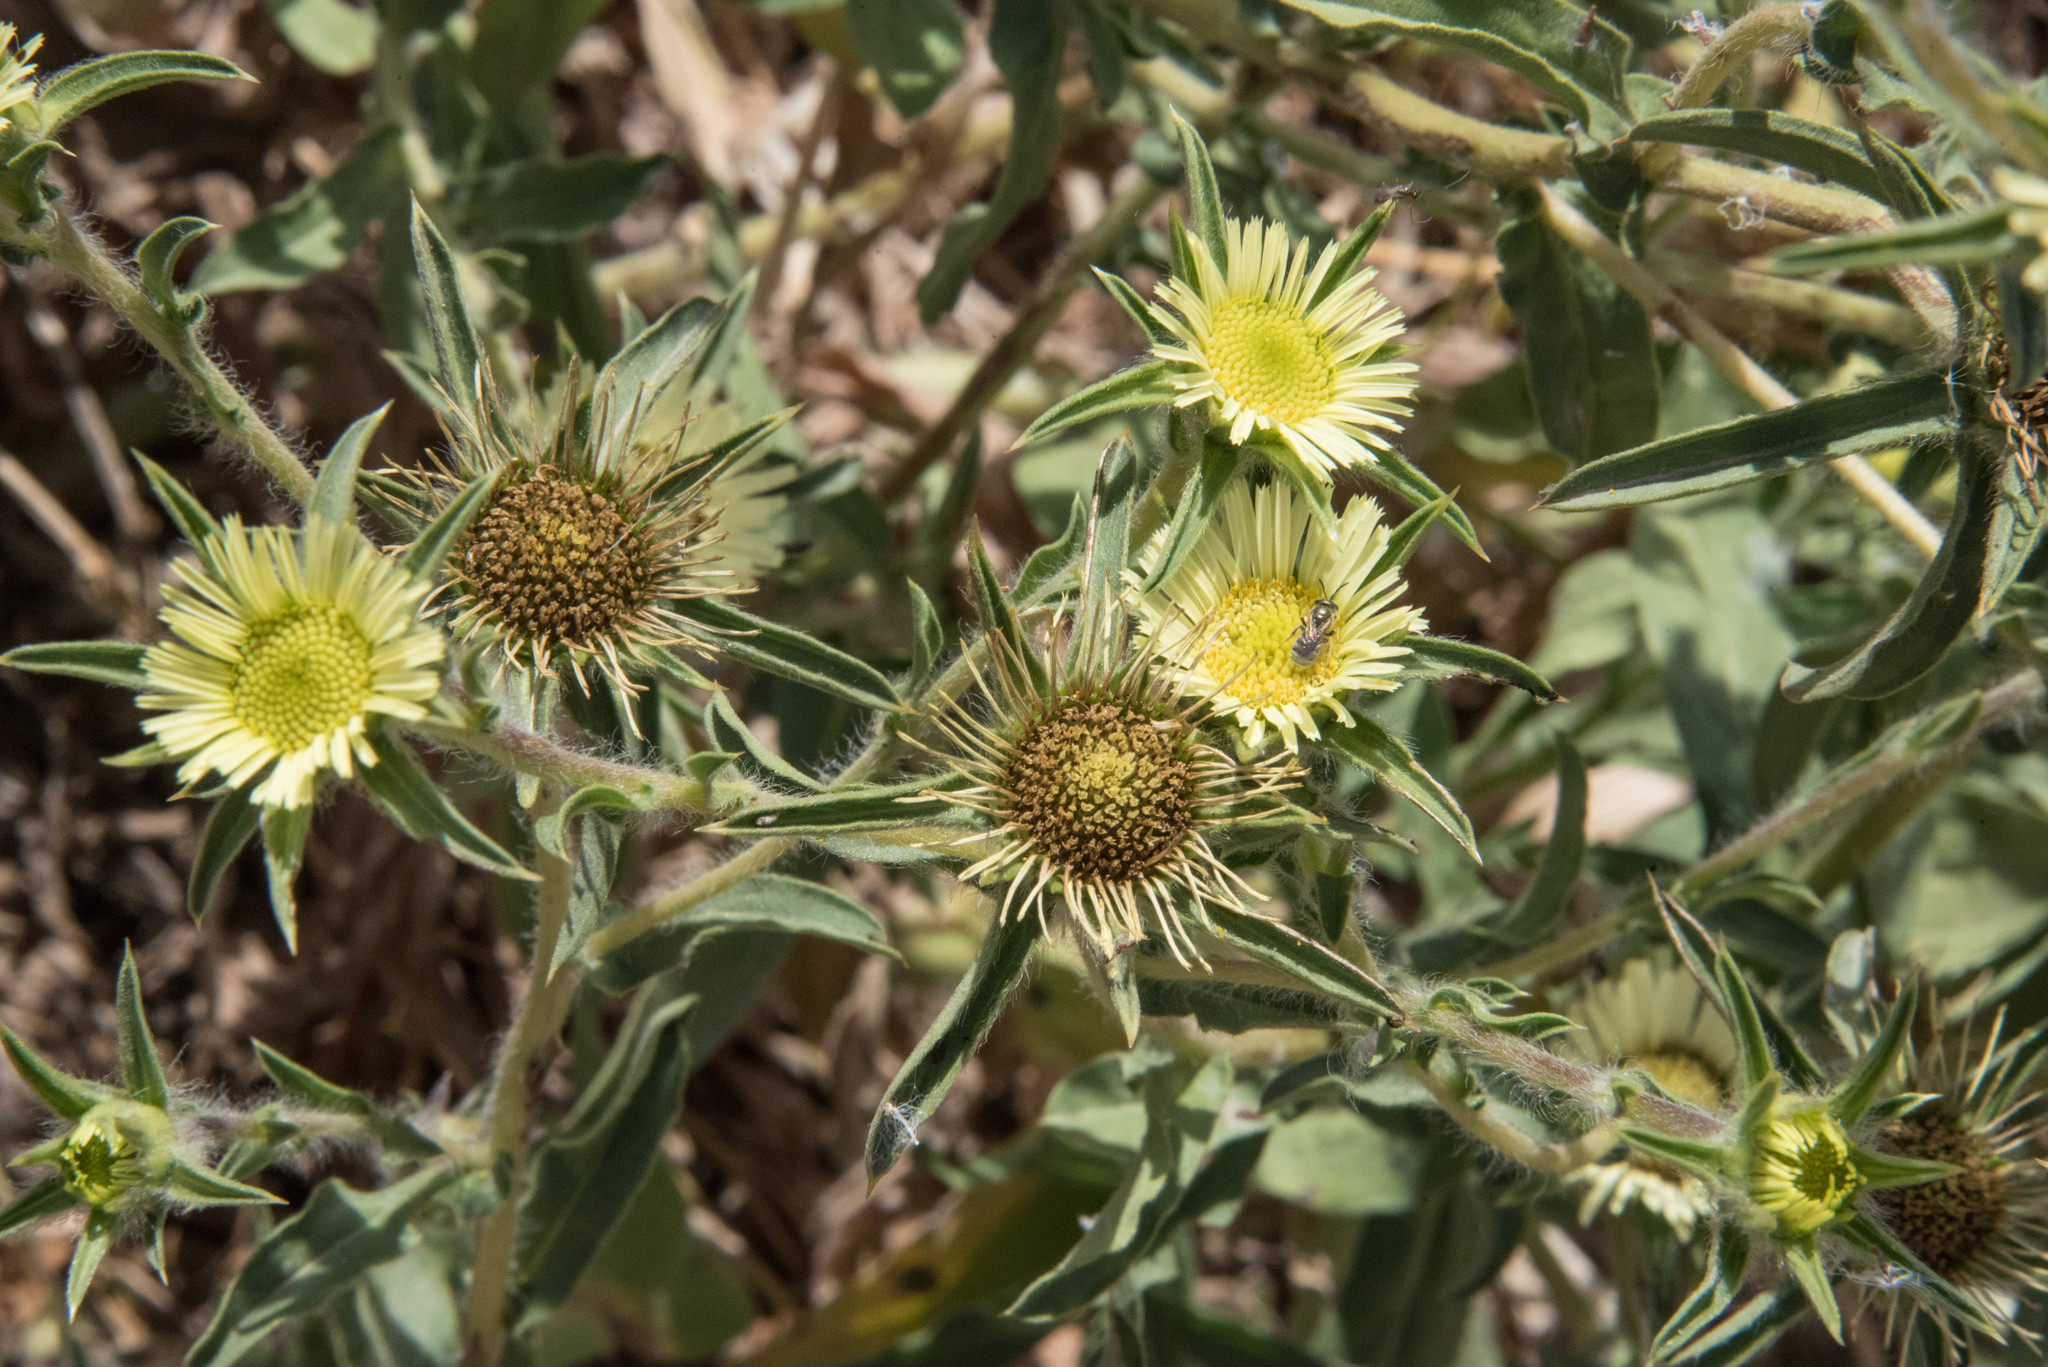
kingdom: Plantae
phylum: Tracheophyta
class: Magnoliopsida
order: Asterales
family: Asteraceae
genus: Pallenis
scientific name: Pallenis spinosa
